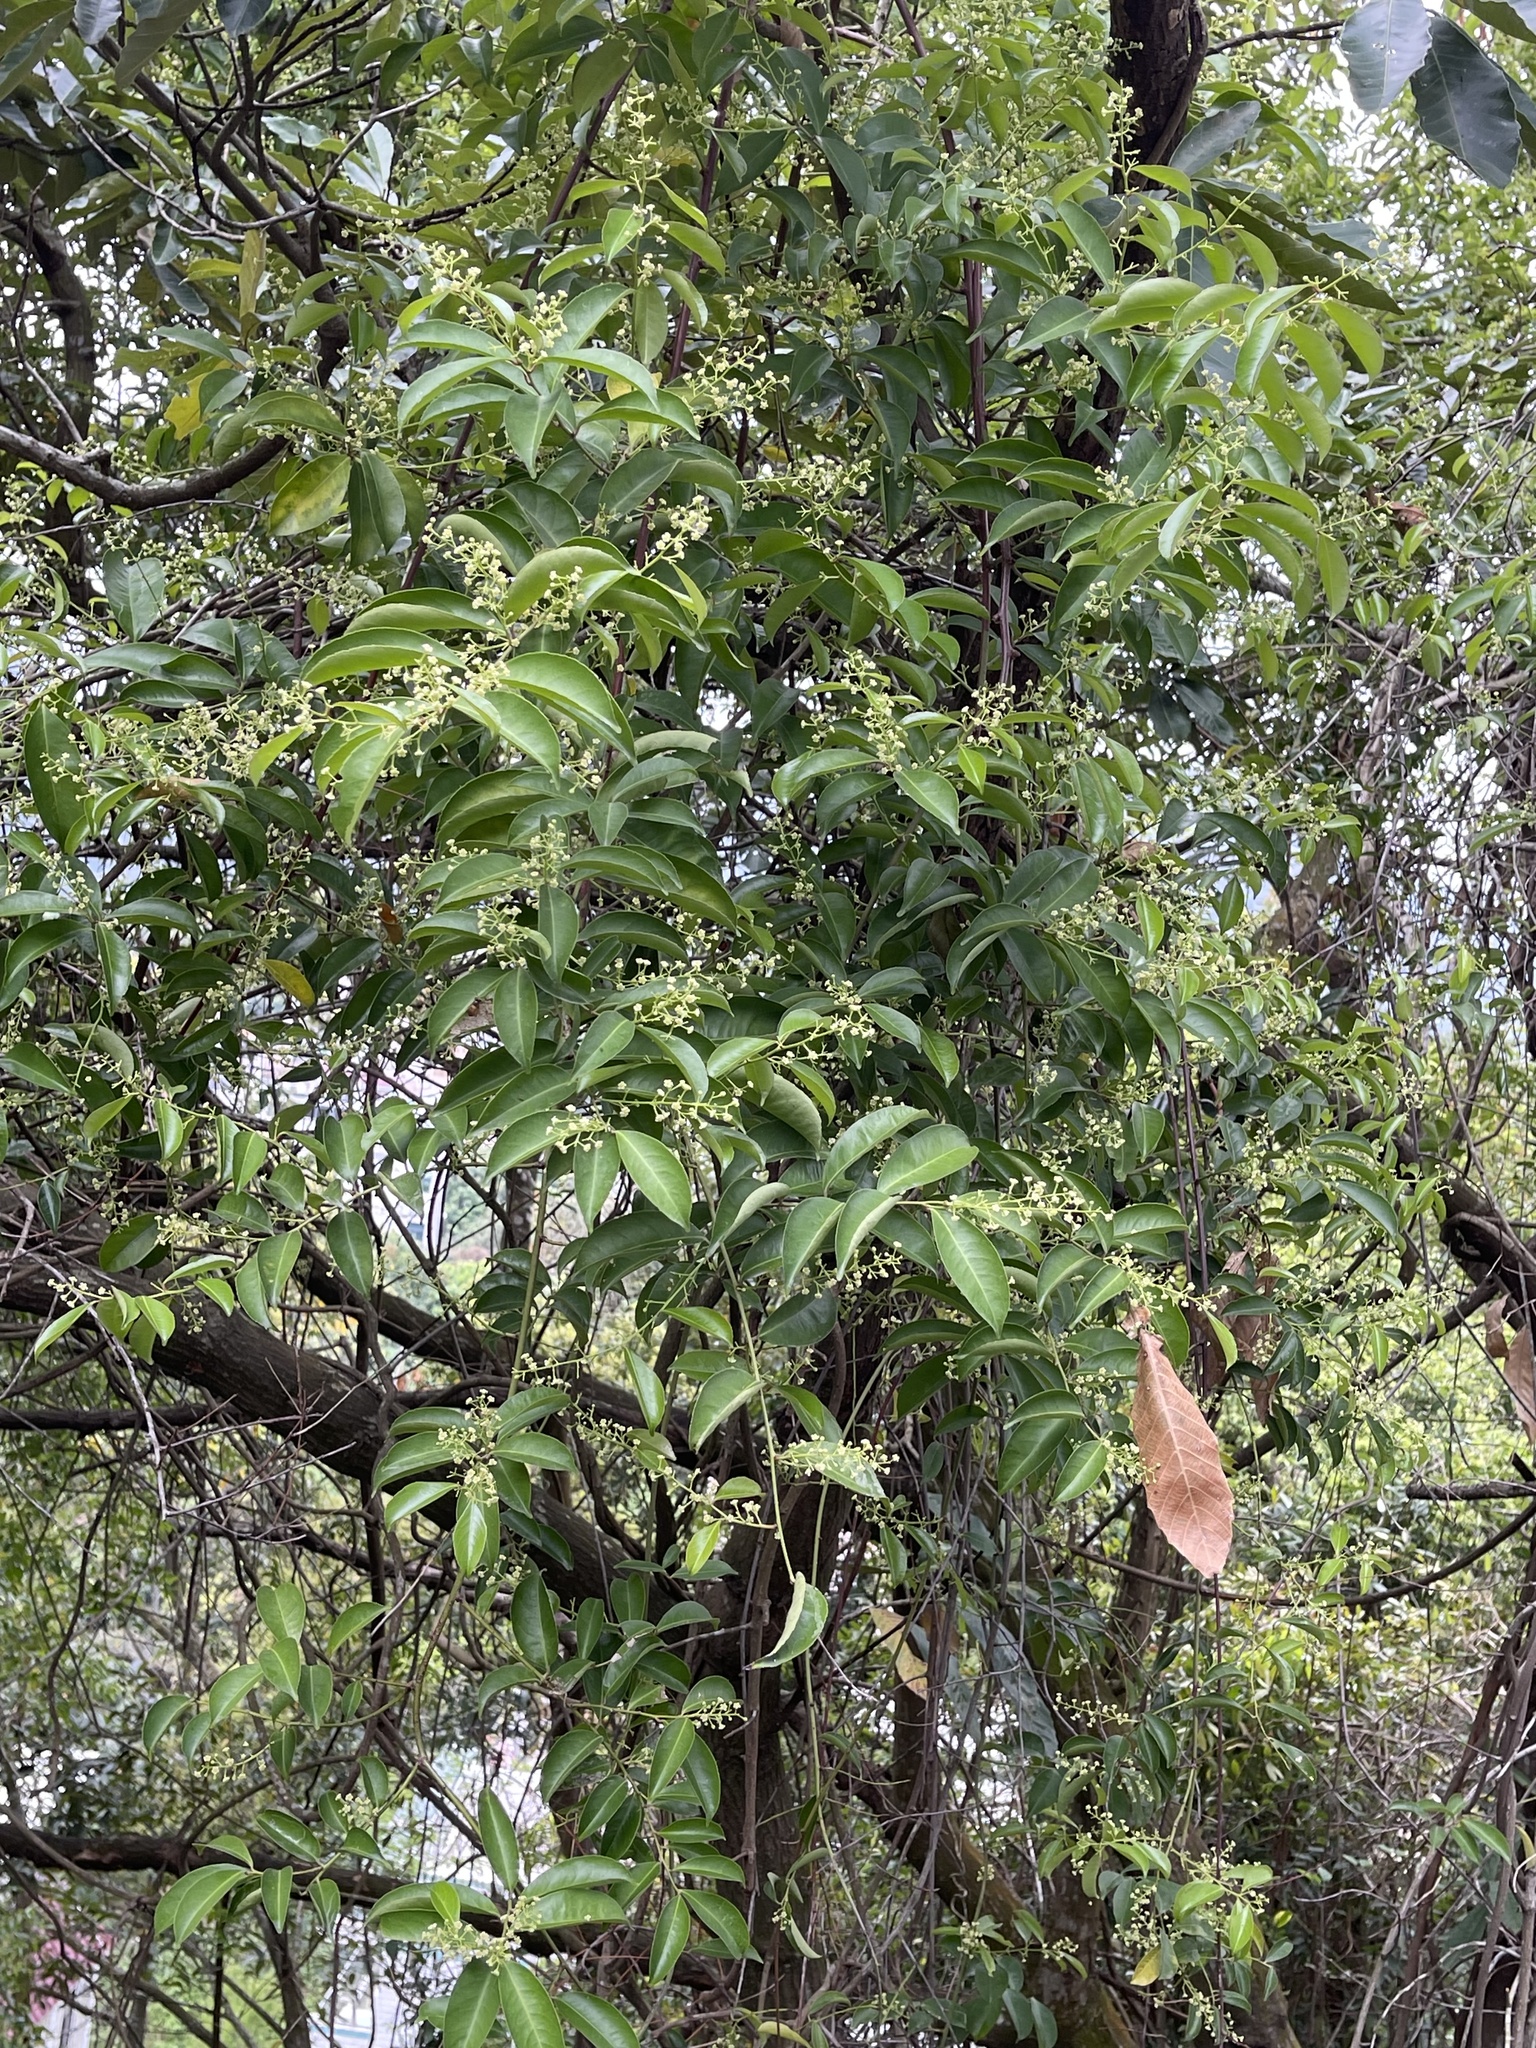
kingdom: Plantae
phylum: Tracheophyta
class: Magnoliopsida
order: Celastrales
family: Celastraceae
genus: Celastrus
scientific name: Celastrus hindsii
